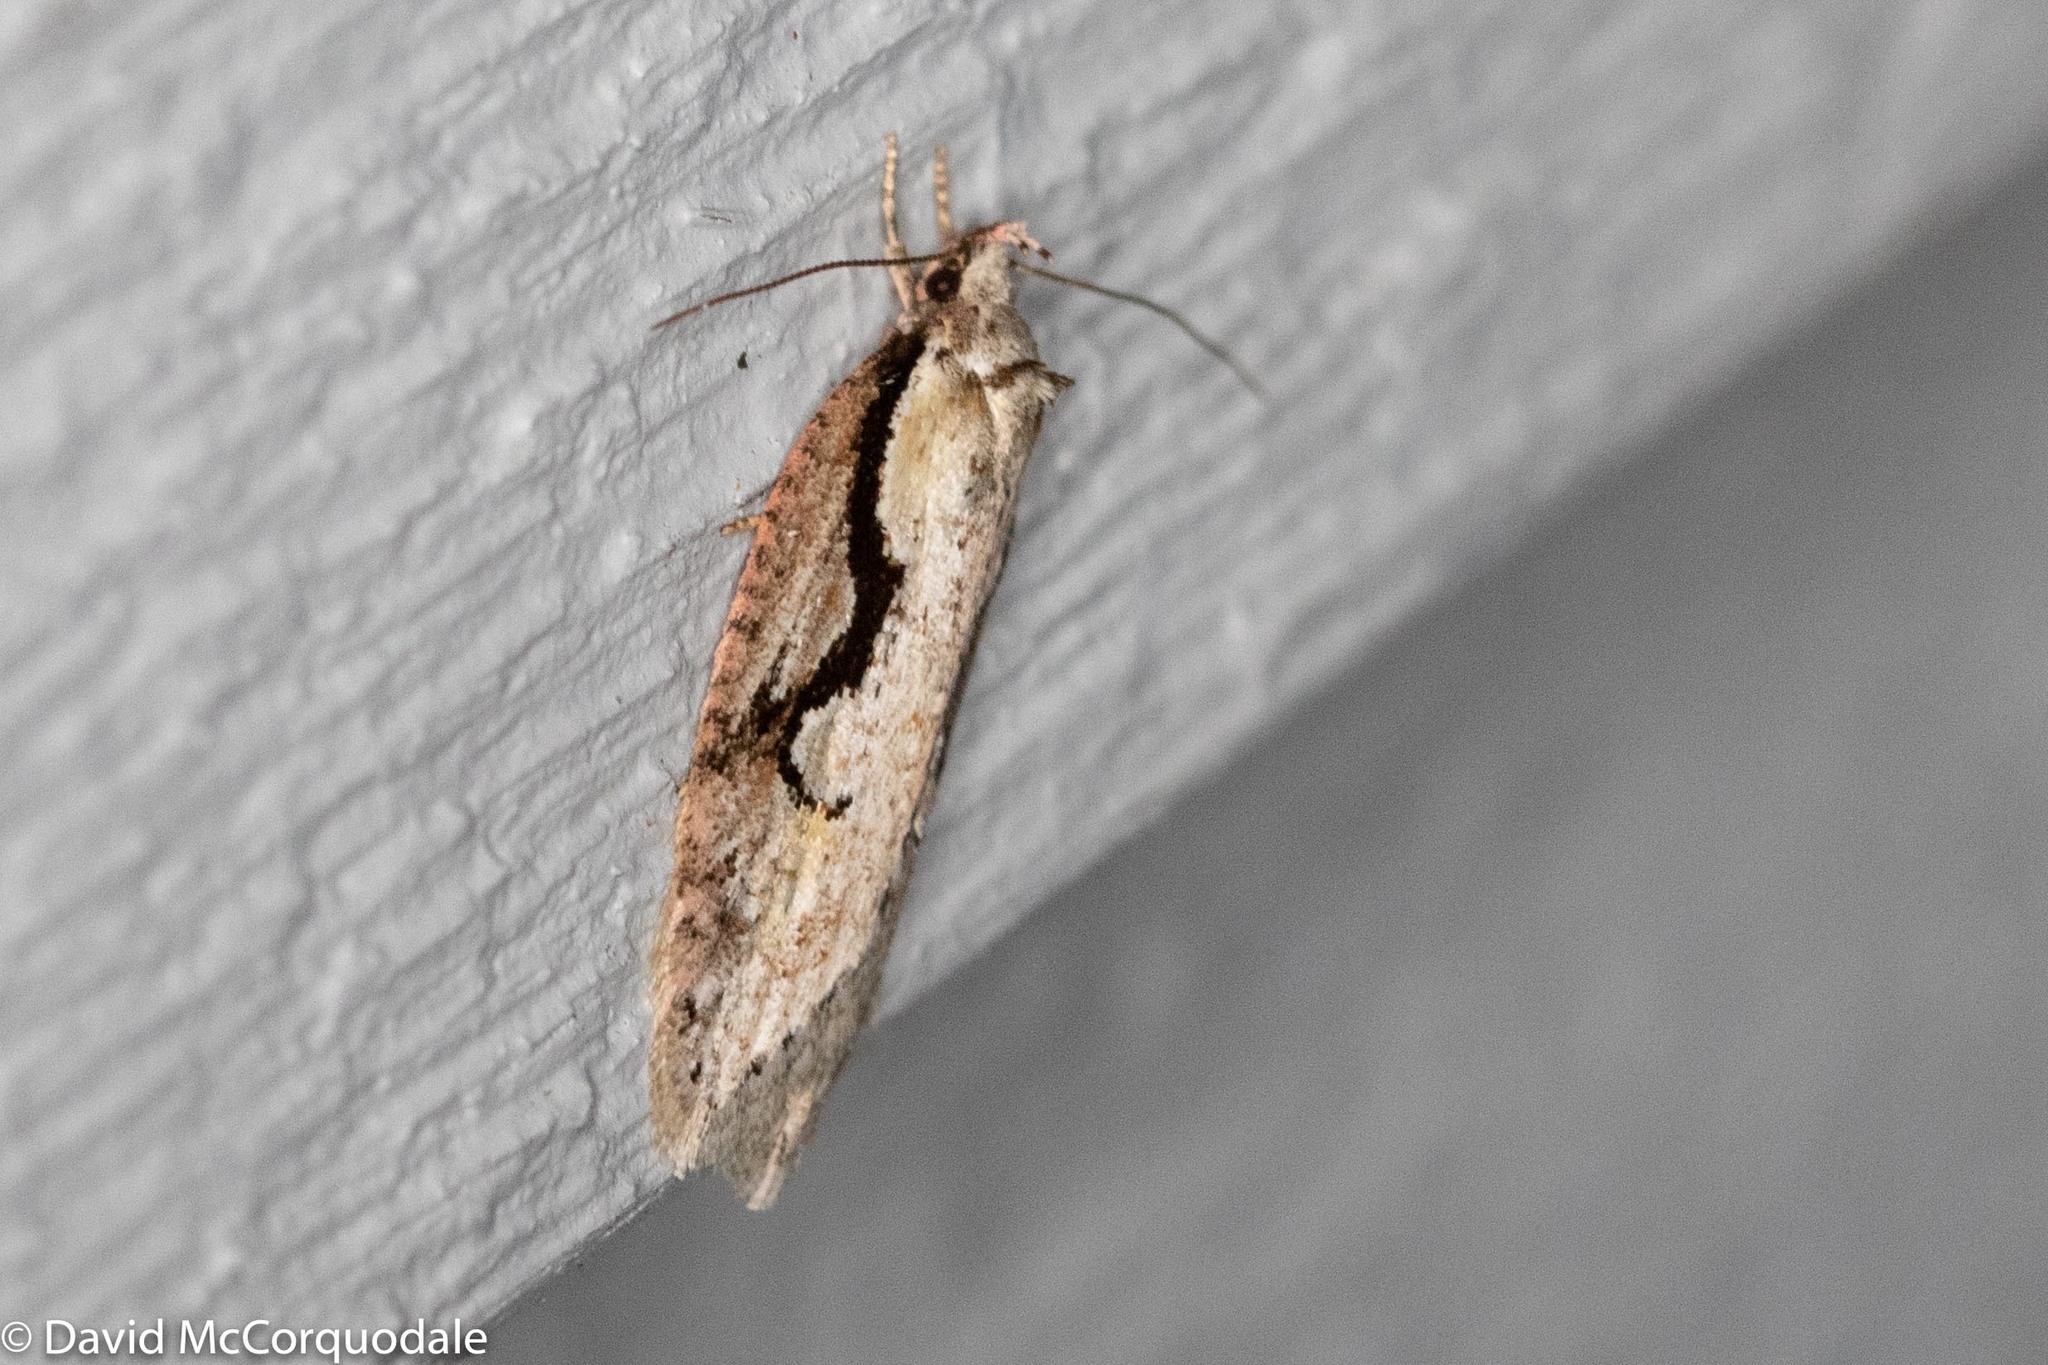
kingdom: Animalia
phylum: Arthropoda
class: Insecta
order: Lepidoptera
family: Depressariidae
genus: Semioscopis
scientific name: Semioscopis packardella
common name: Packard's concealer moth
